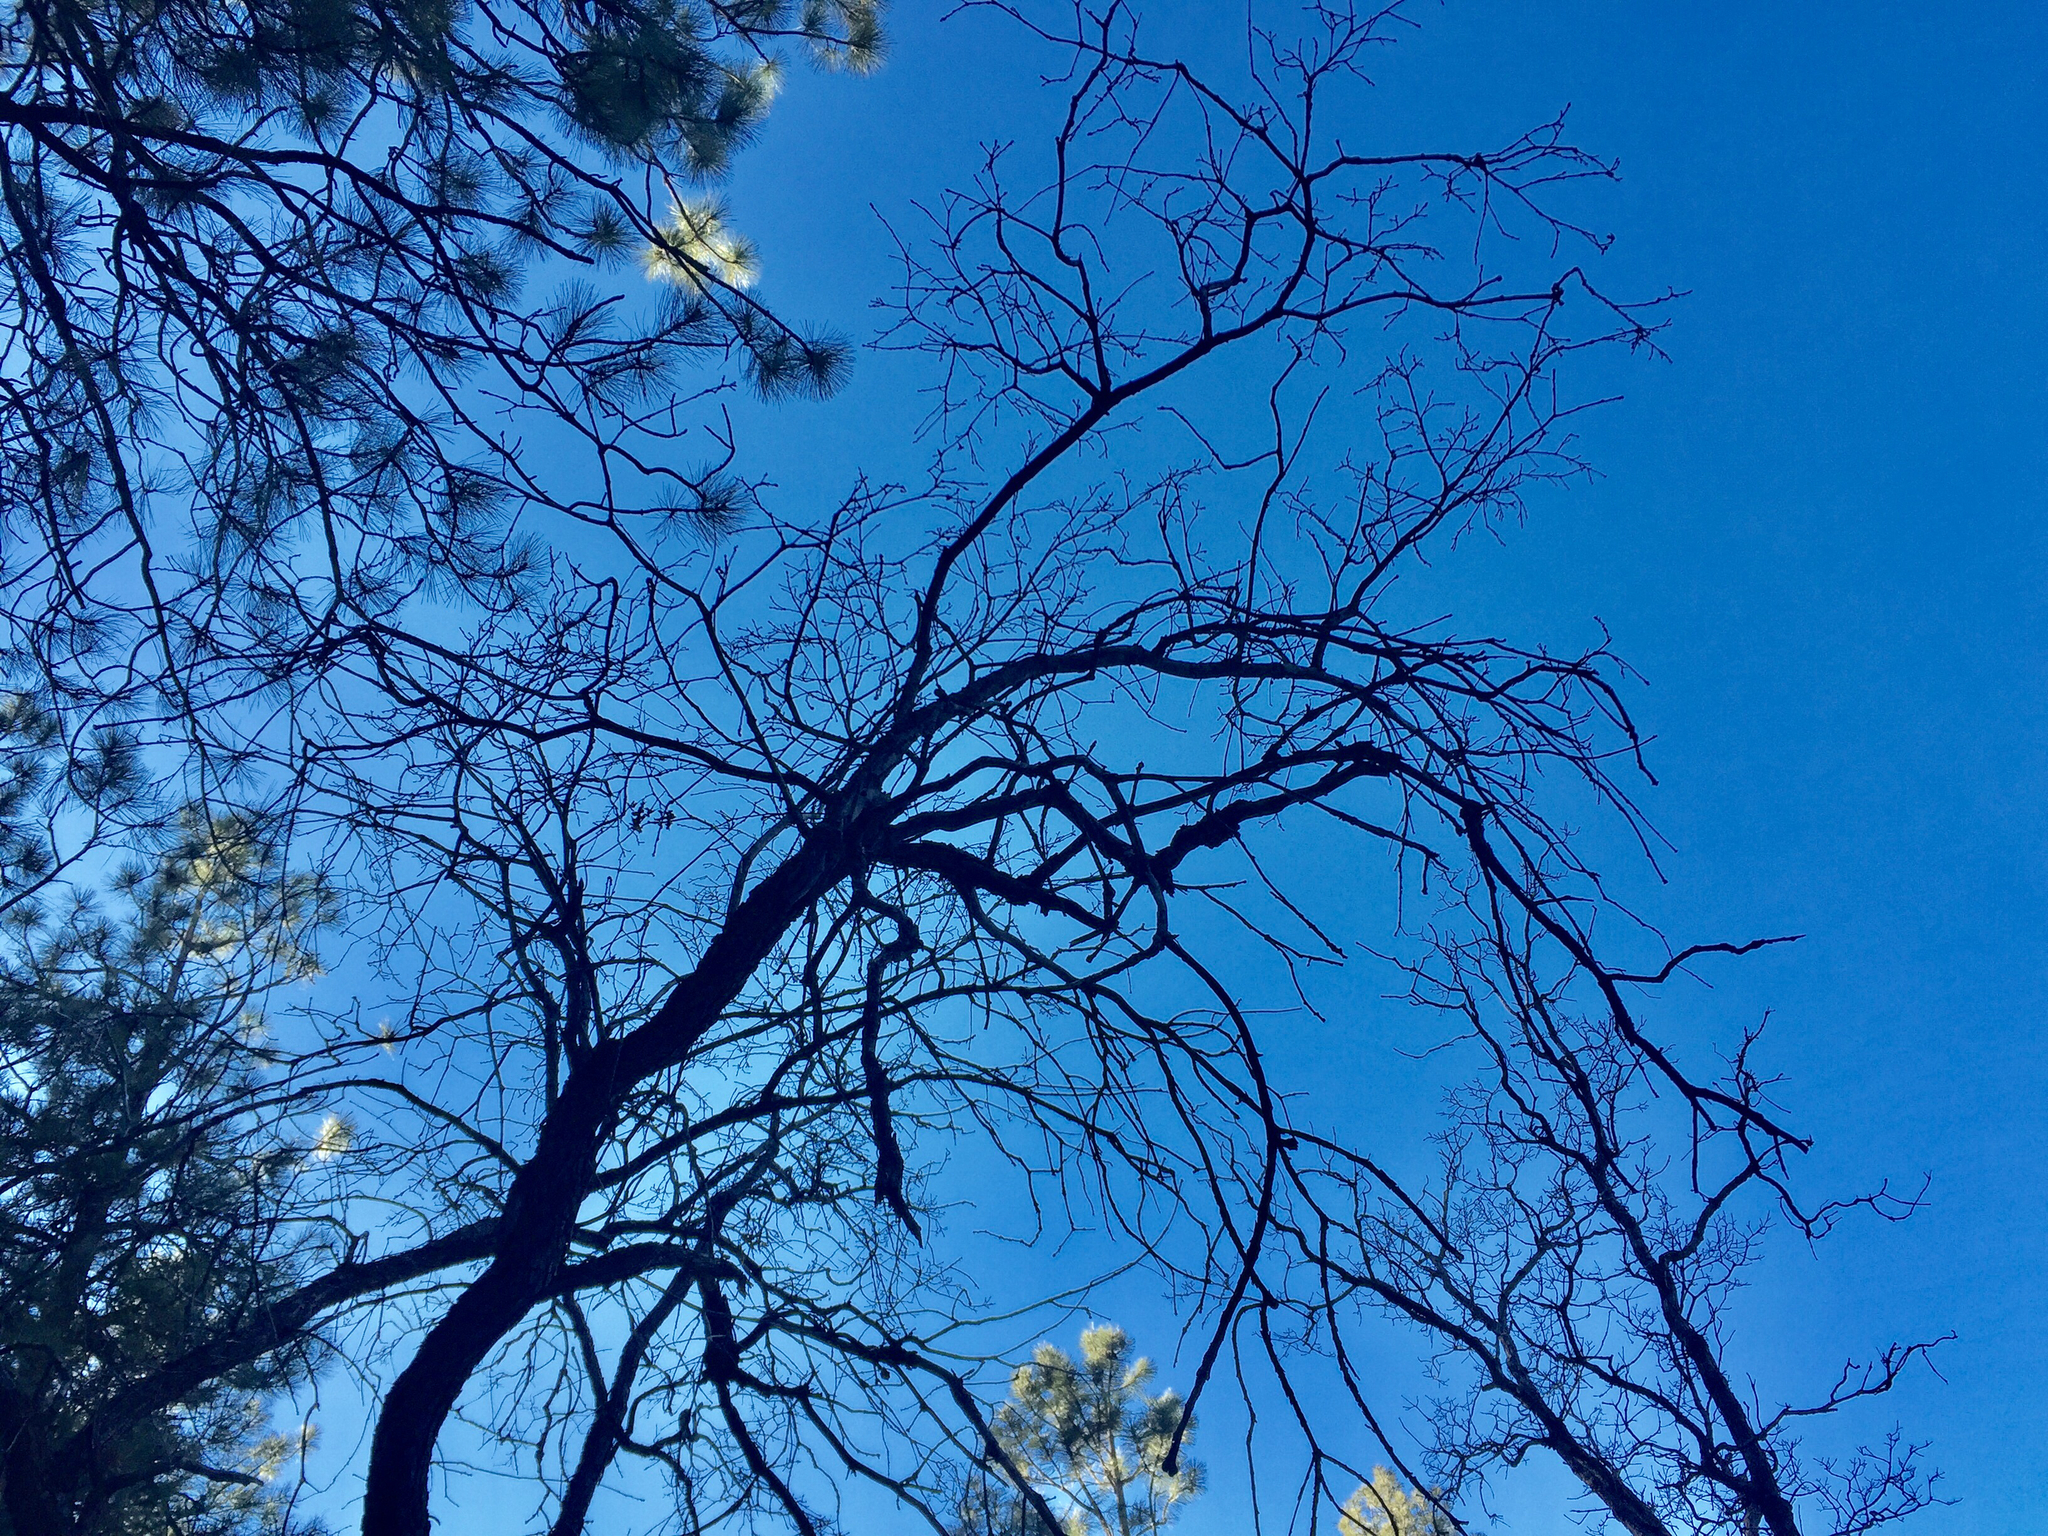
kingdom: Plantae
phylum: Tracheophyta
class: Magnoliopsida
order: Fagales
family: Fagaceae
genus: Quercus
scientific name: Quercus gambelii
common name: Gambel oak
